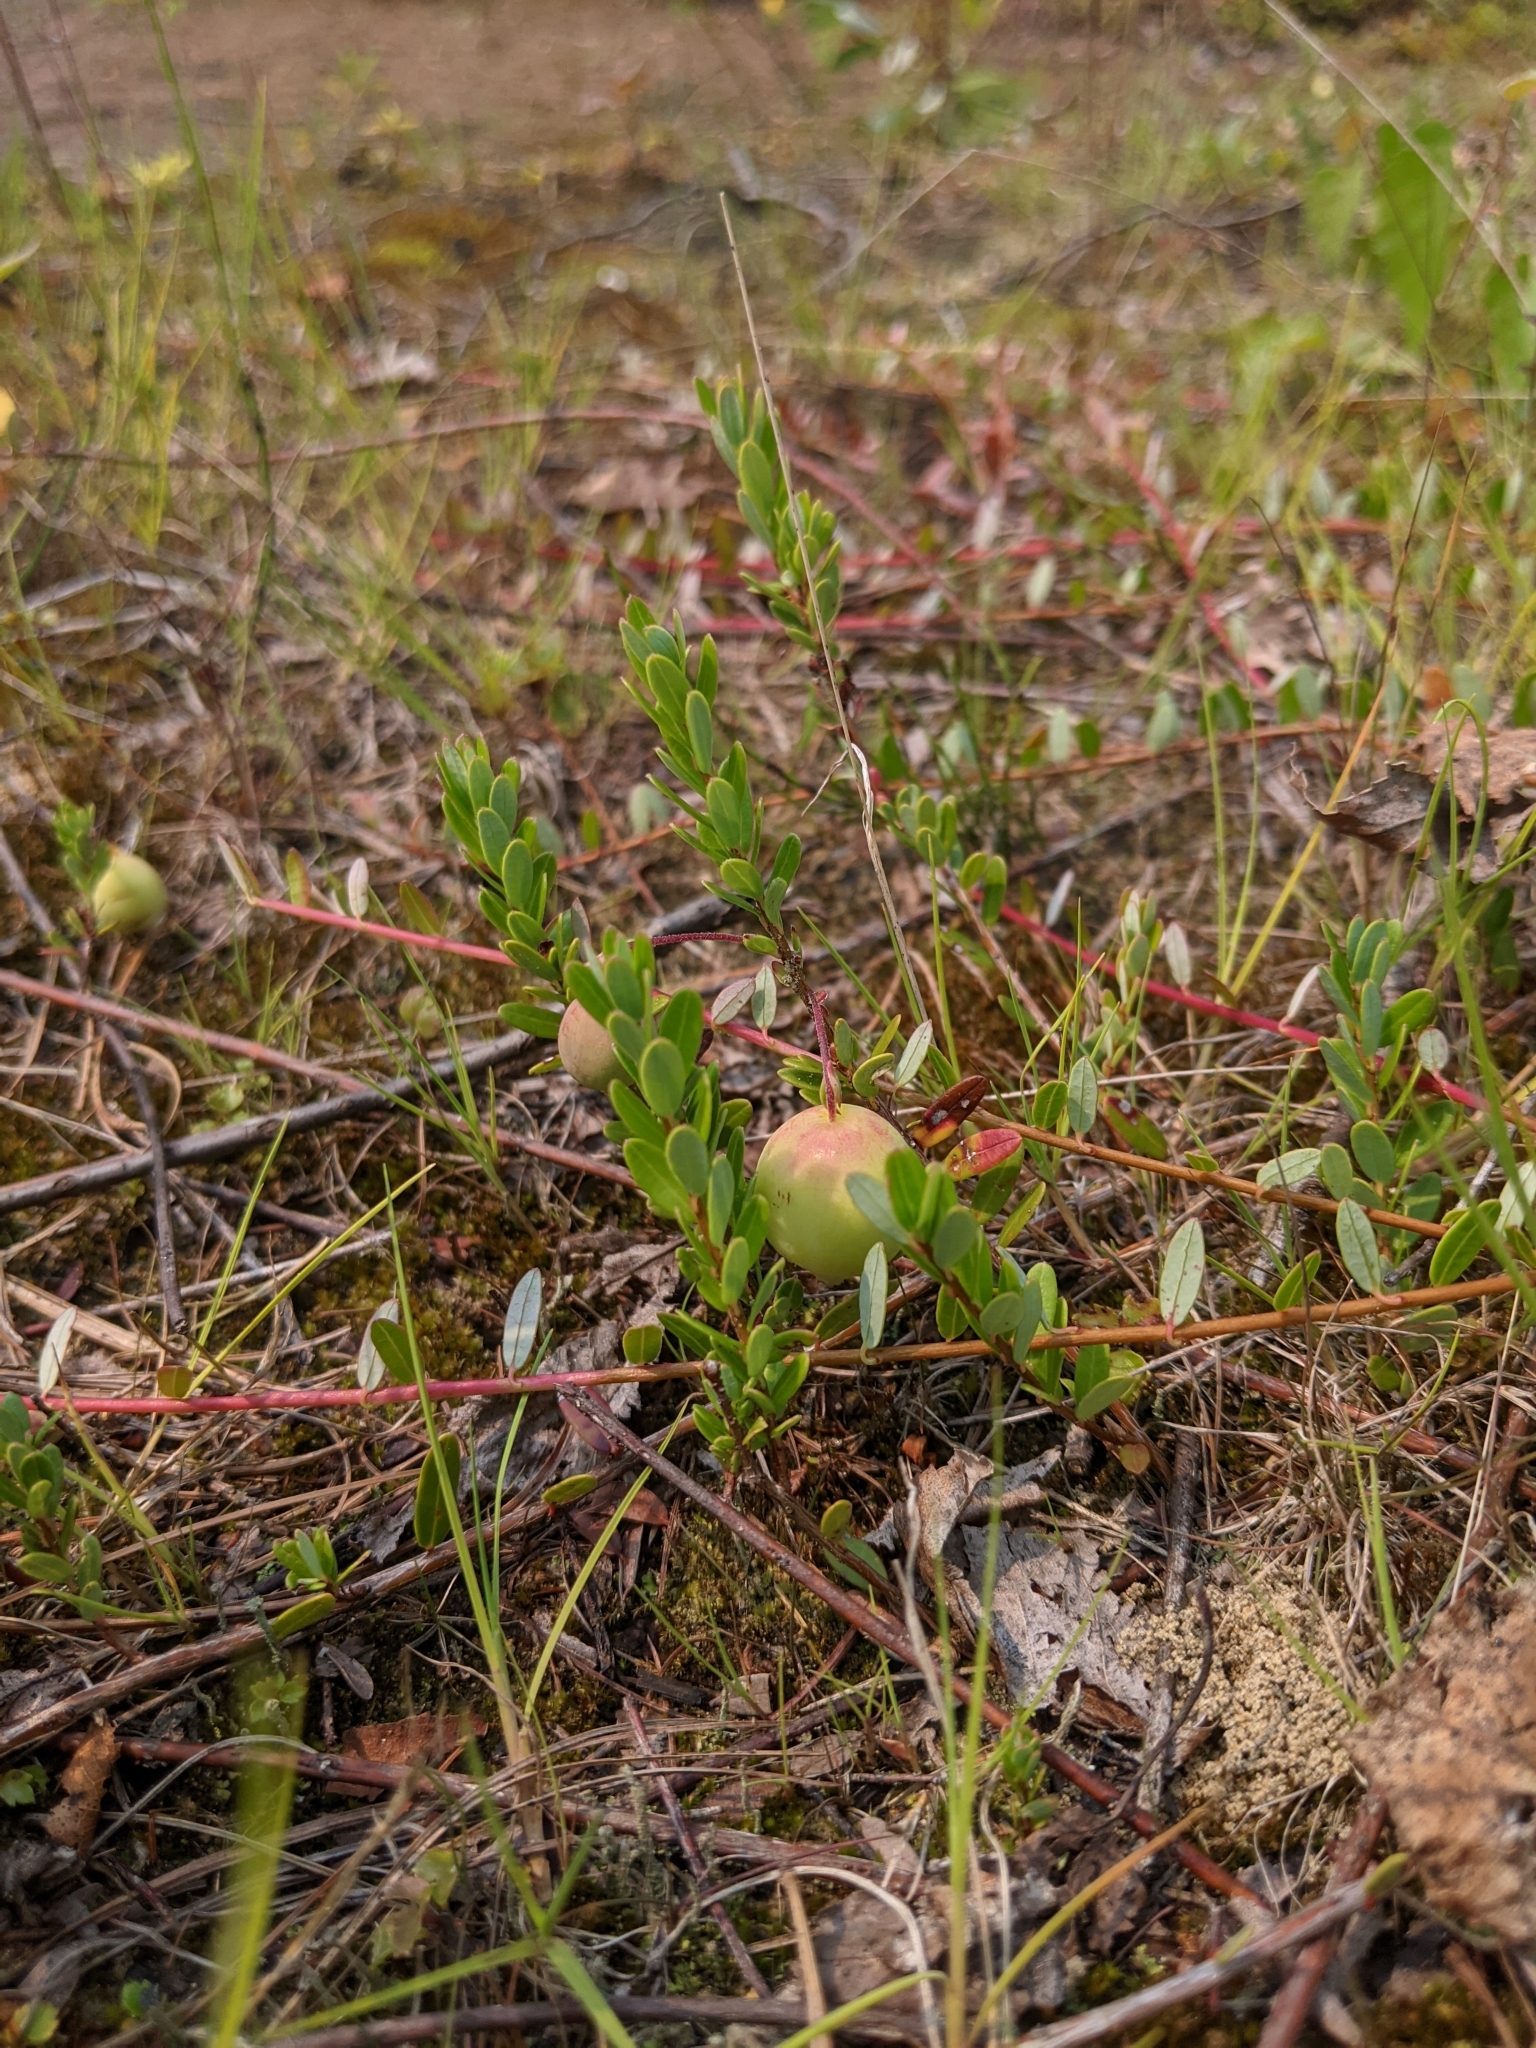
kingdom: Plantae
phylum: Tracheophyta
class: Magnoliopsida
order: Ericales
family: Ericaceae
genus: Vaccinium
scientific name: Vaccinium macrocarpon
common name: American cranberry
